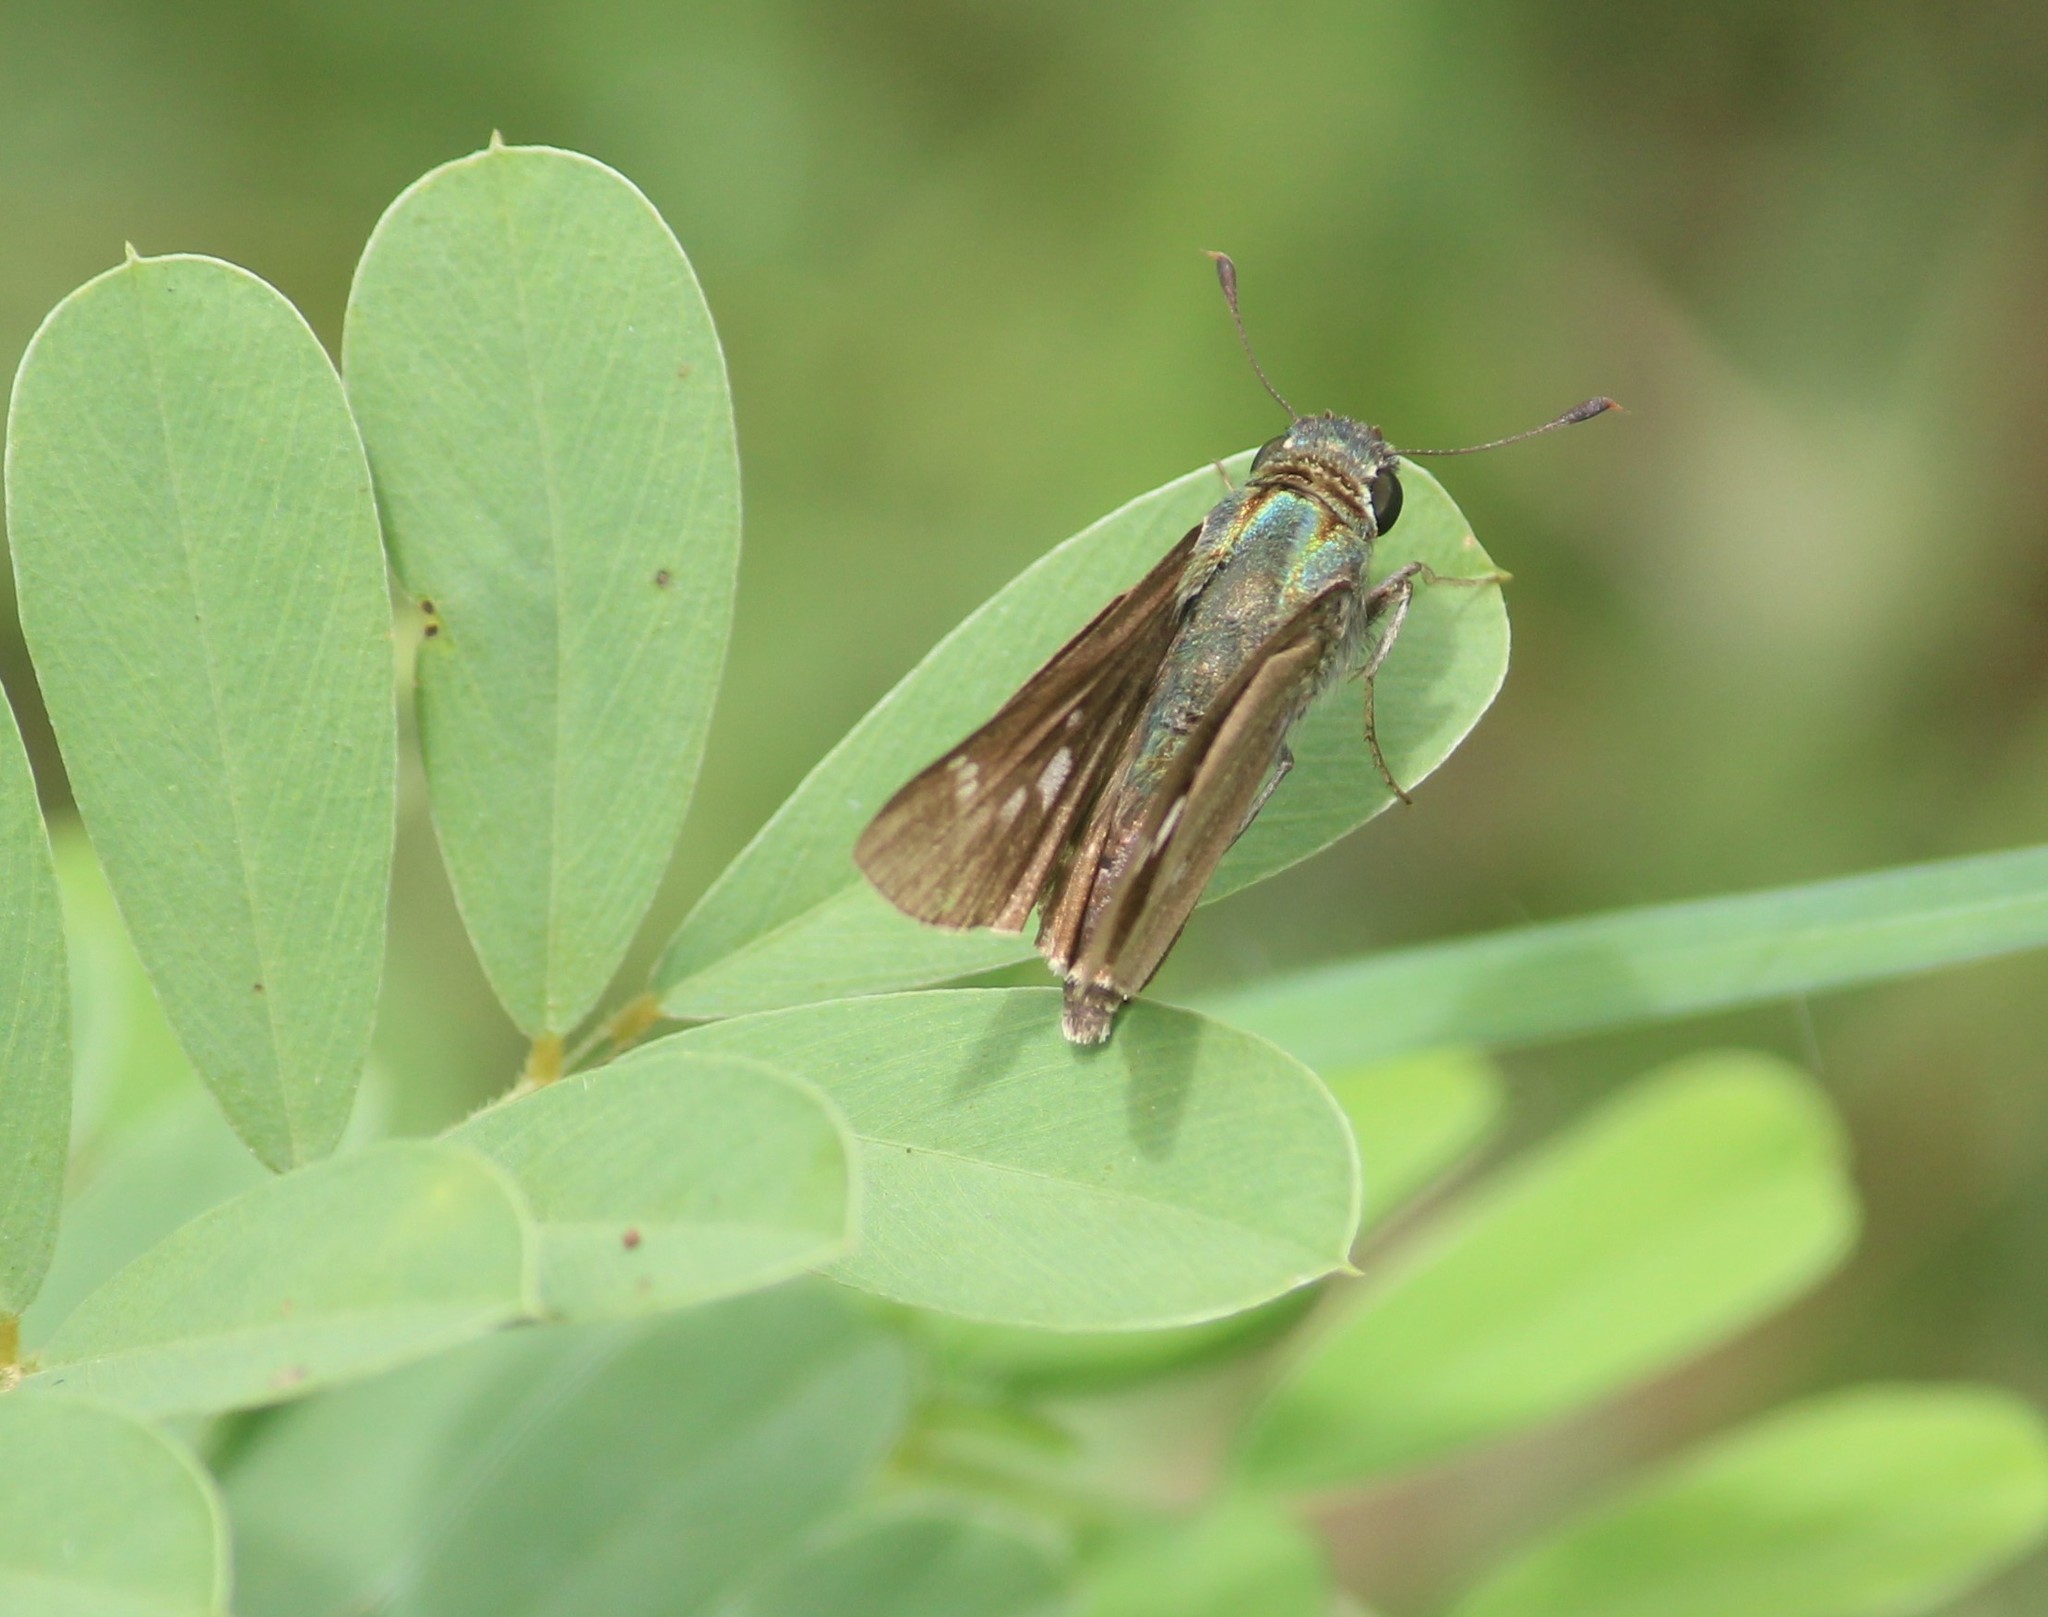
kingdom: Animalia
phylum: Arthropoda
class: Insecta
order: Lepidoptera
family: Hesperiidae
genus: Parnara
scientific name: Parnara naso
